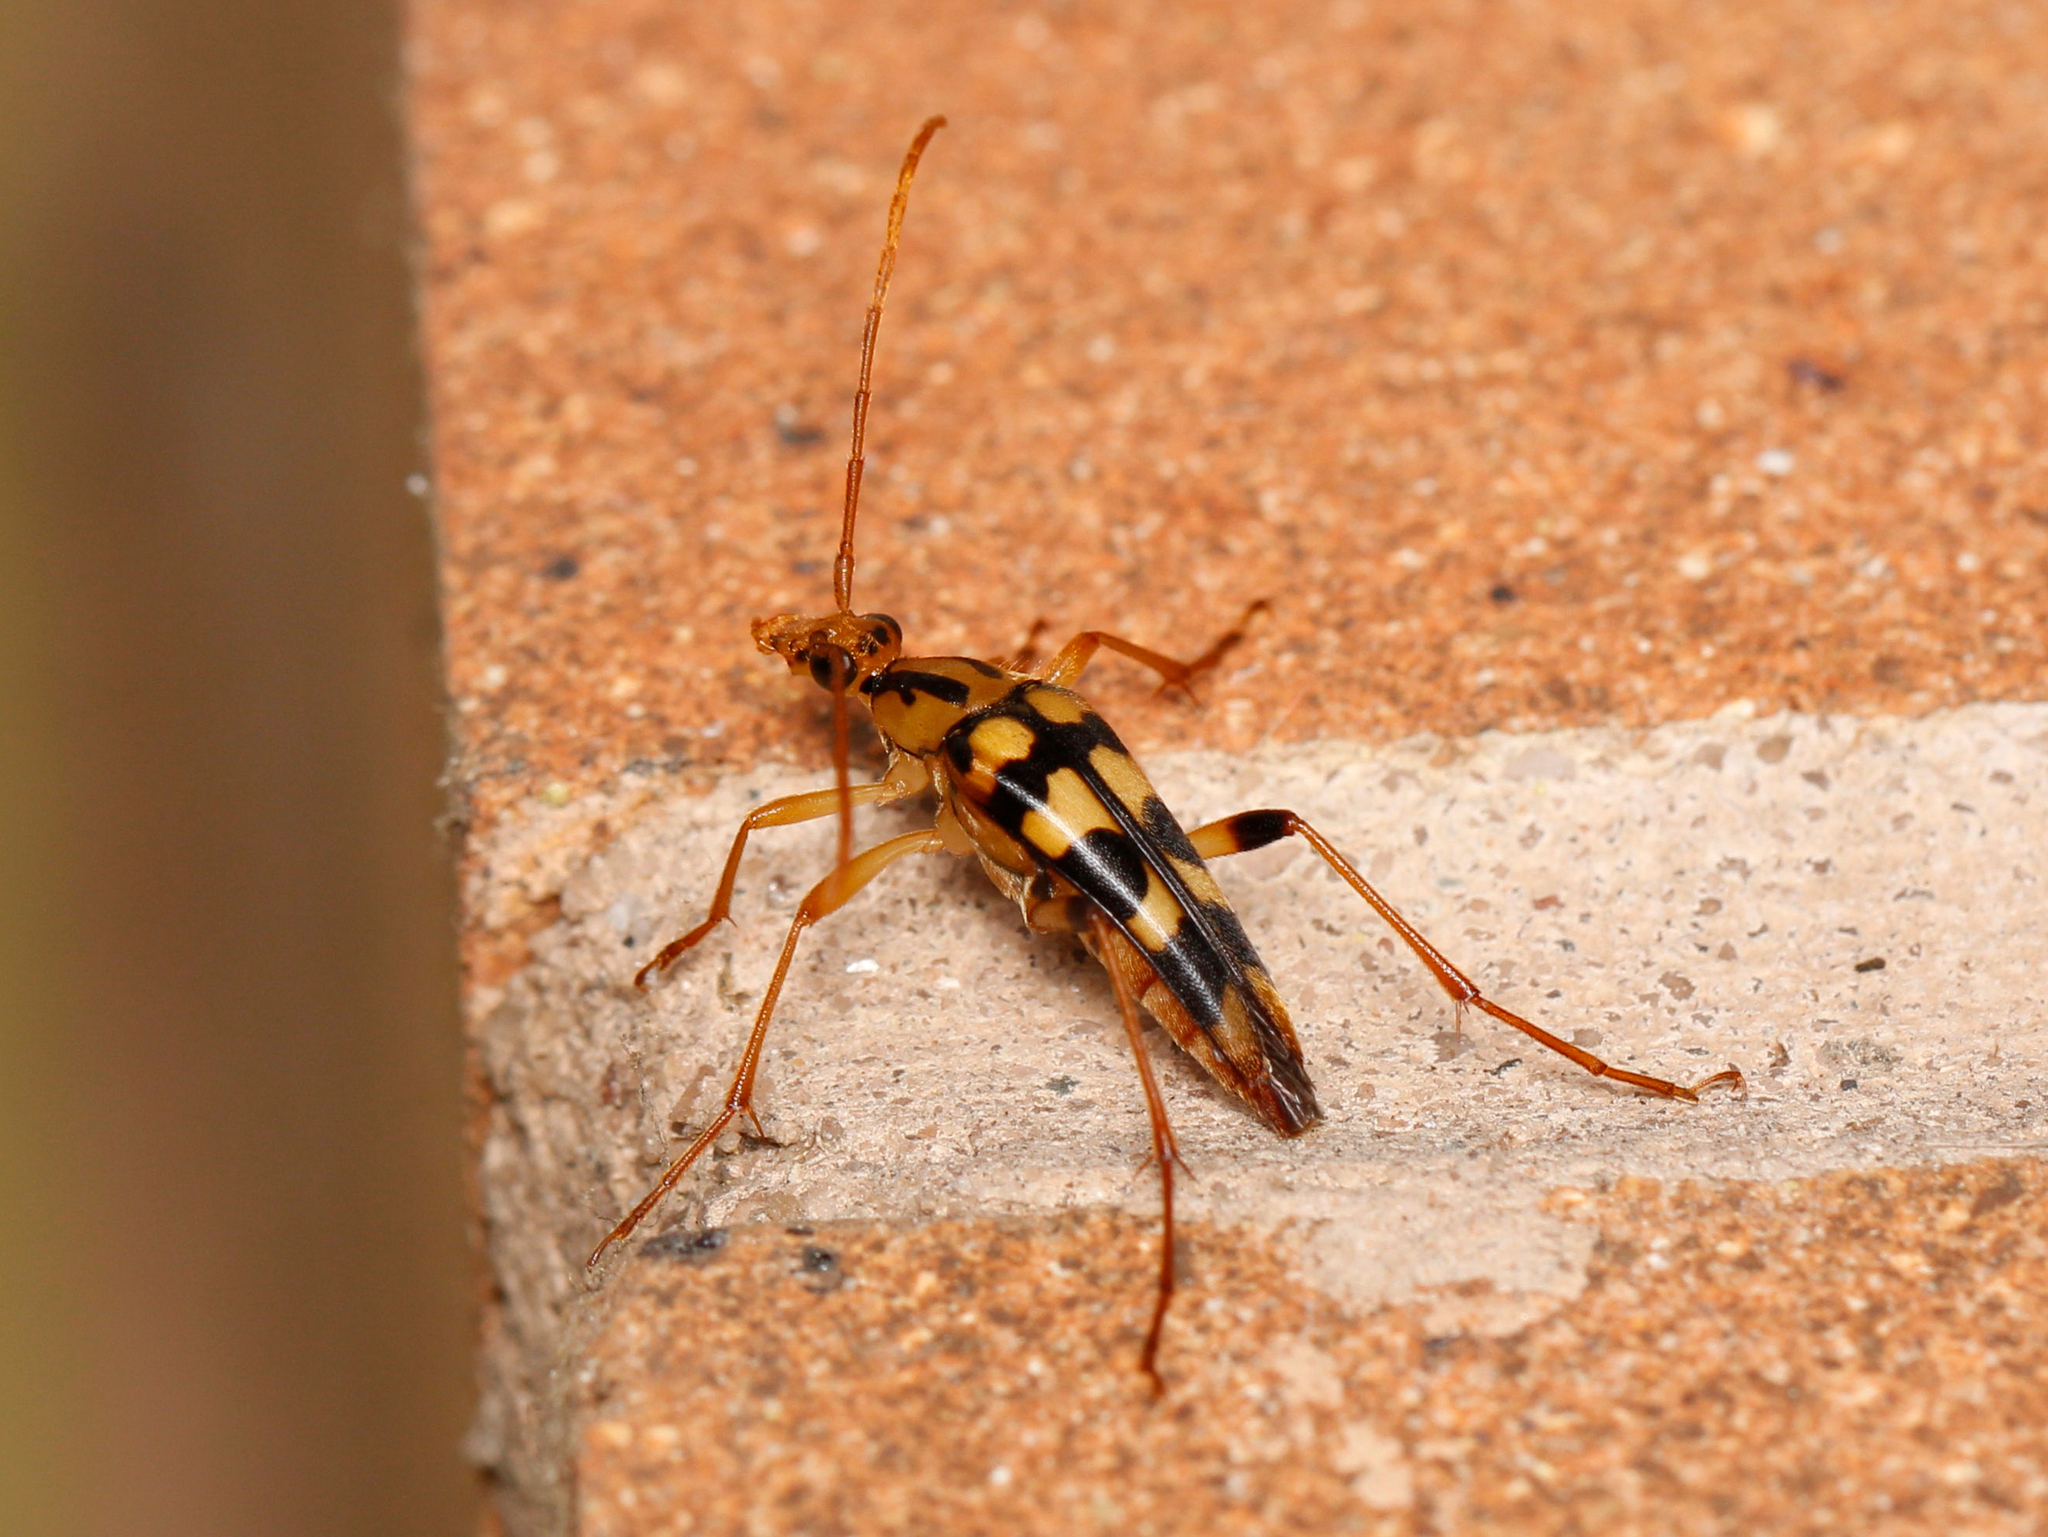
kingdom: Animalia
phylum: Arthropoda
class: Insecta
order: Coleoptera
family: Cerambycidae
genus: Strangalia
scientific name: Strangalia luteicornis
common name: Yellow-horned flower longhorn beetle
